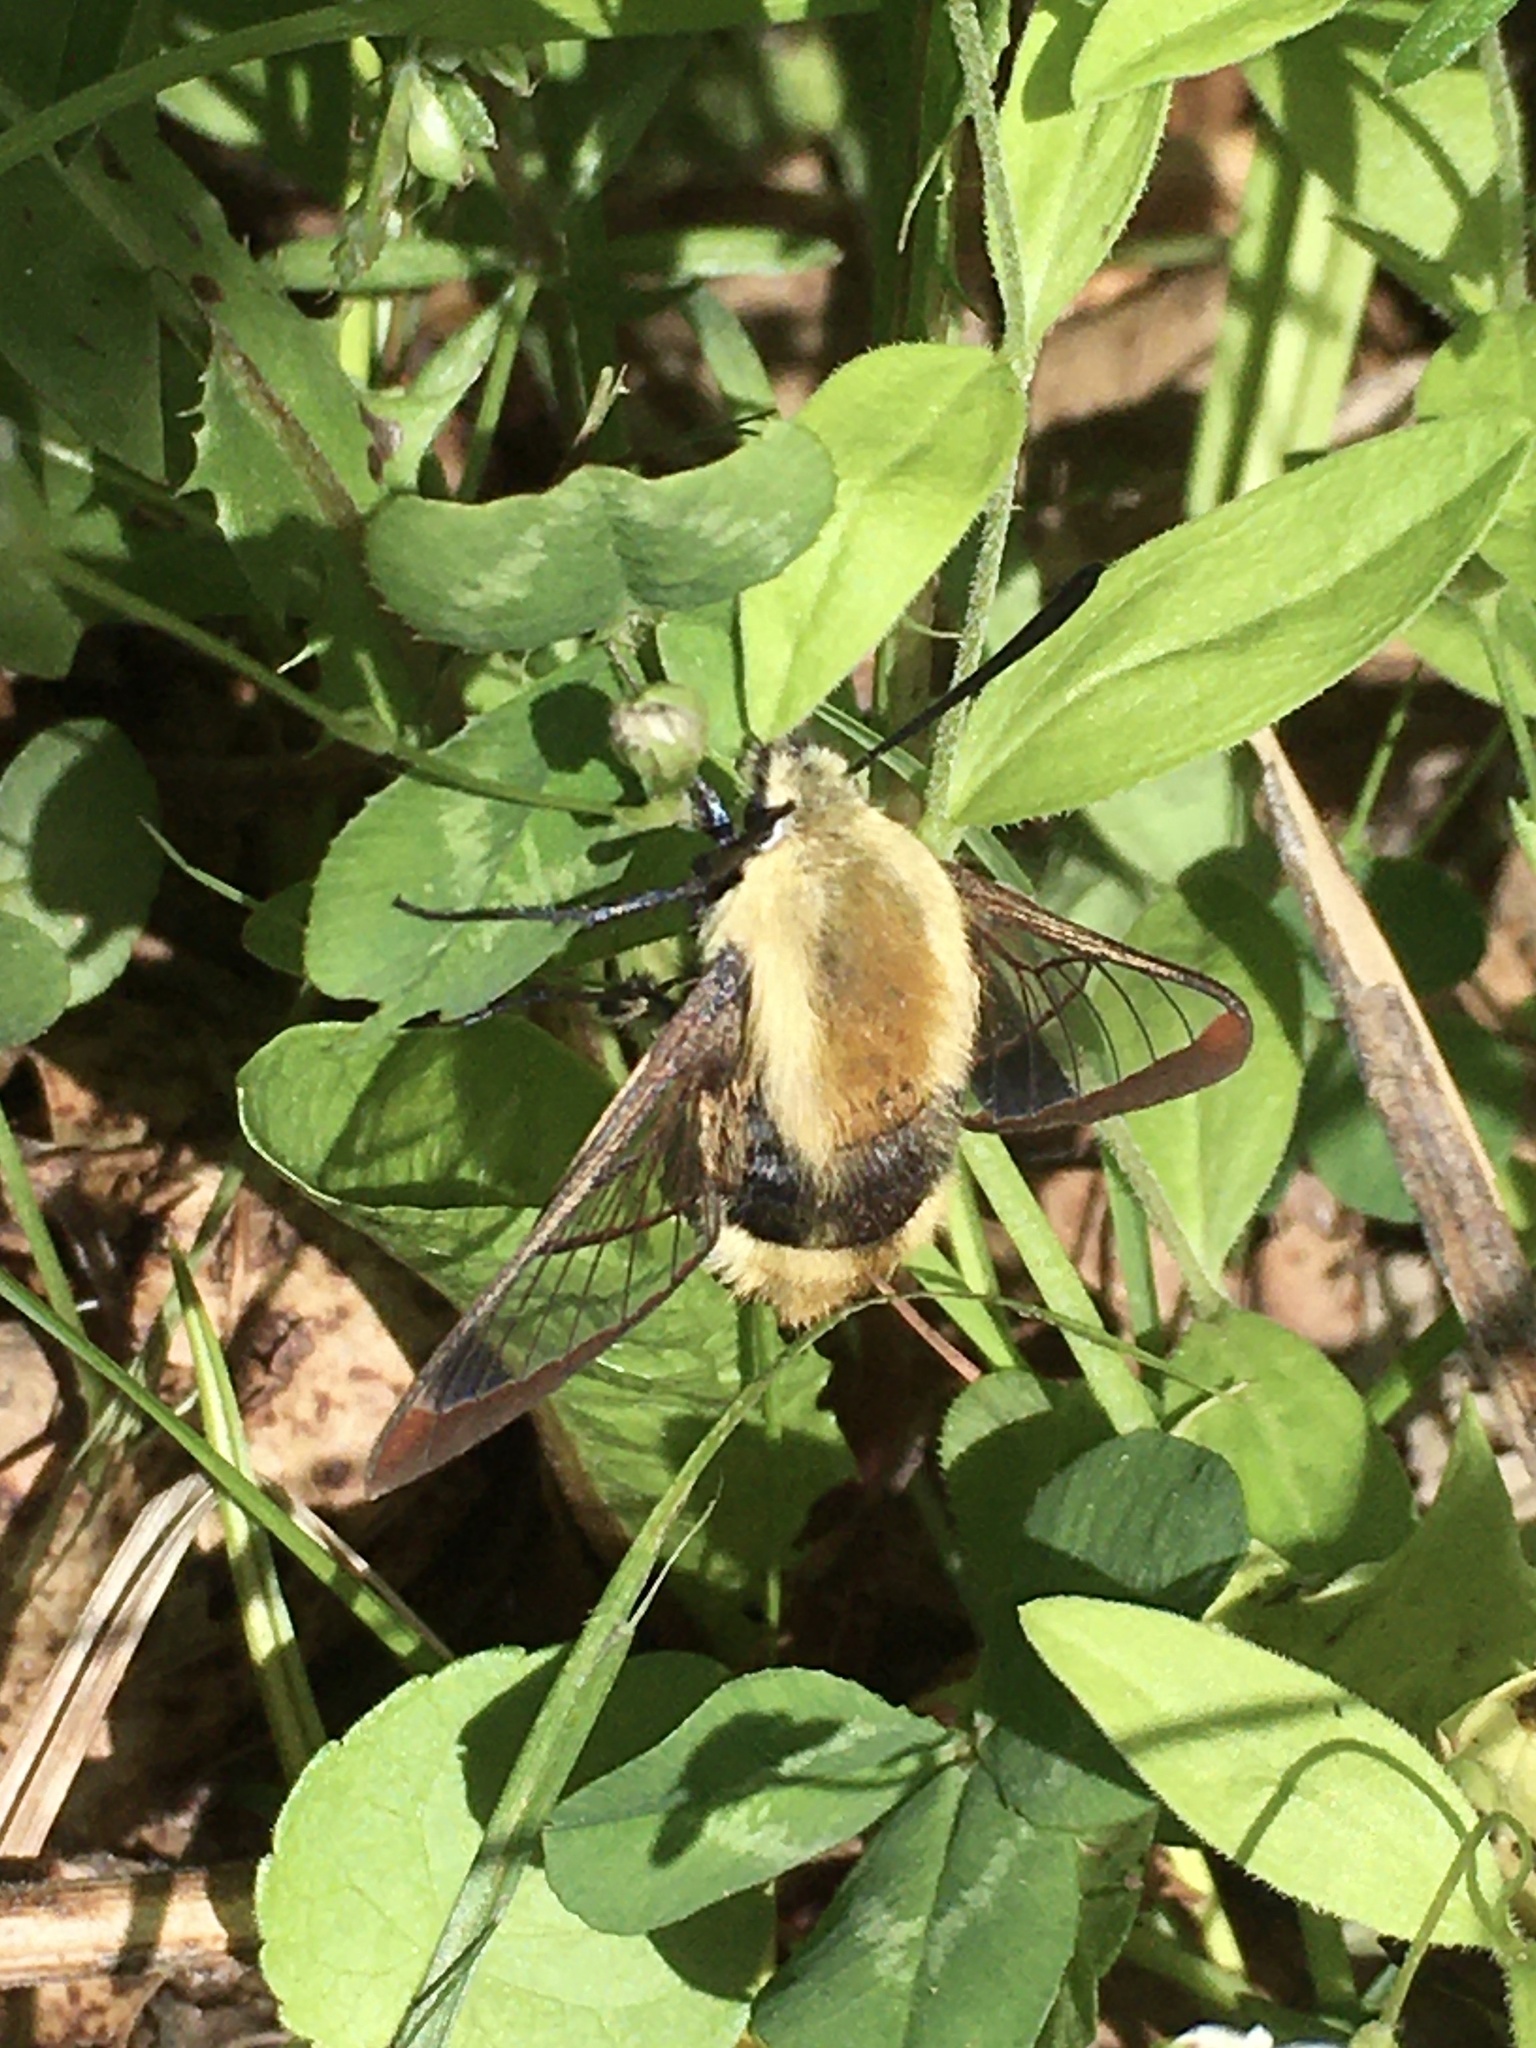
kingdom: Animalia
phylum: Arthropoda
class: Insecta
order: Lepidoptera
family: Sphingidae
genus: Hemaris
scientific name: Hemaris diffinis
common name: Bumblebee moth
